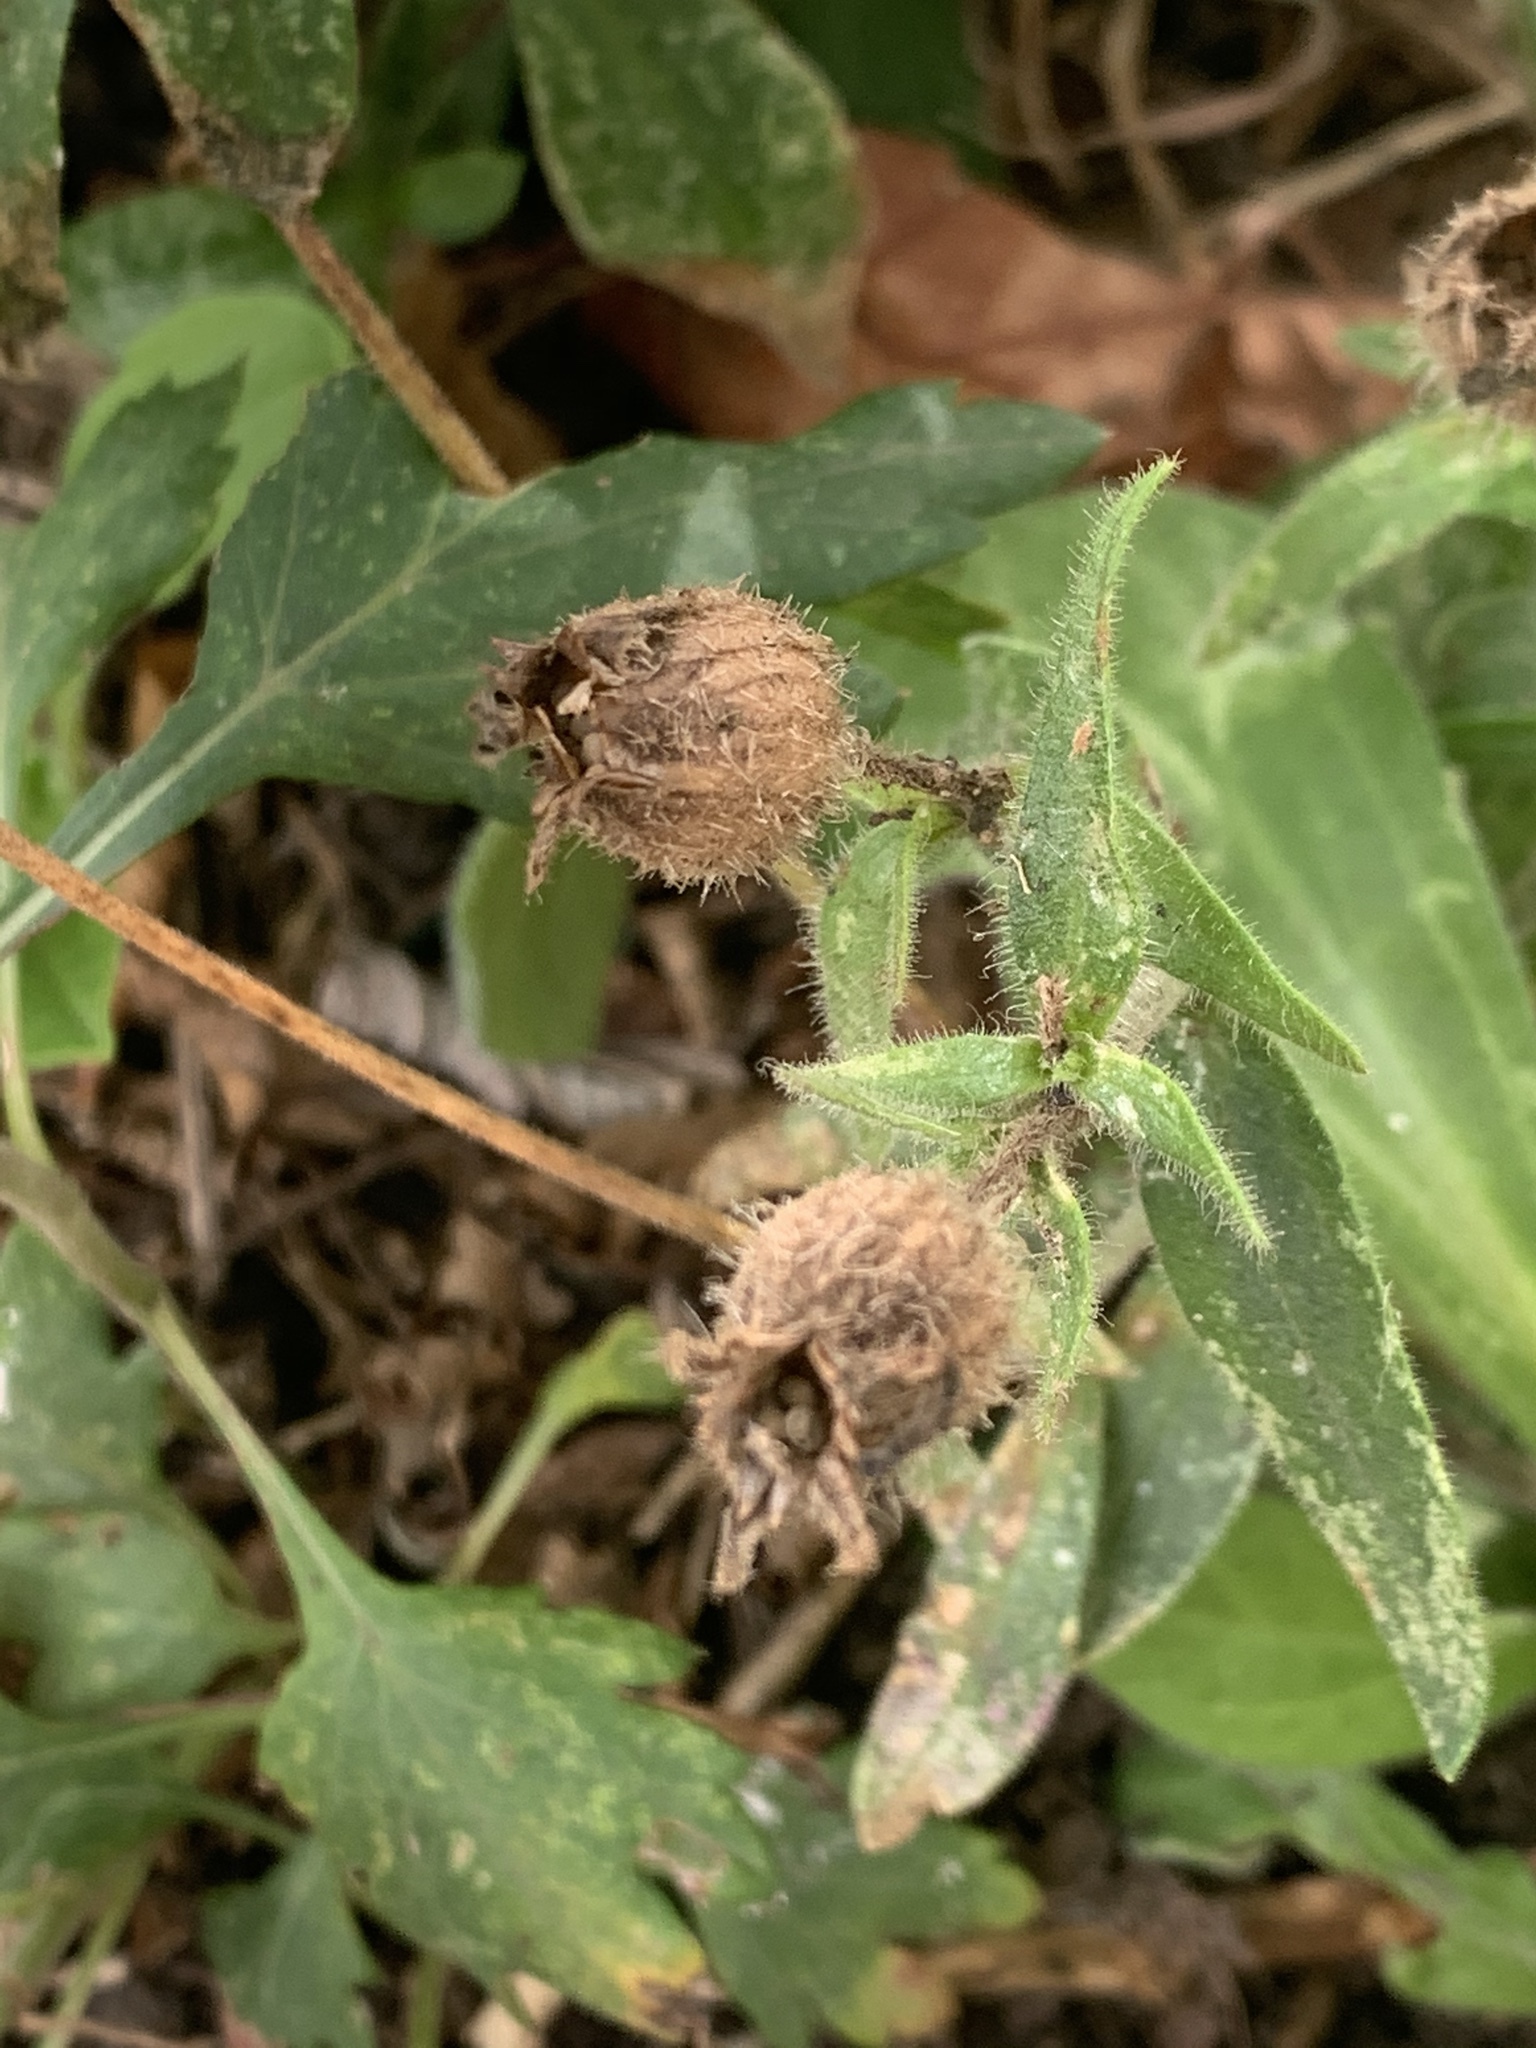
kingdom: Plantae
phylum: Tracheophyta
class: Magnoliopsida
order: Caryophyllales
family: Caryophyllaceae
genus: Silene
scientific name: Silene latifolia
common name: White campion
